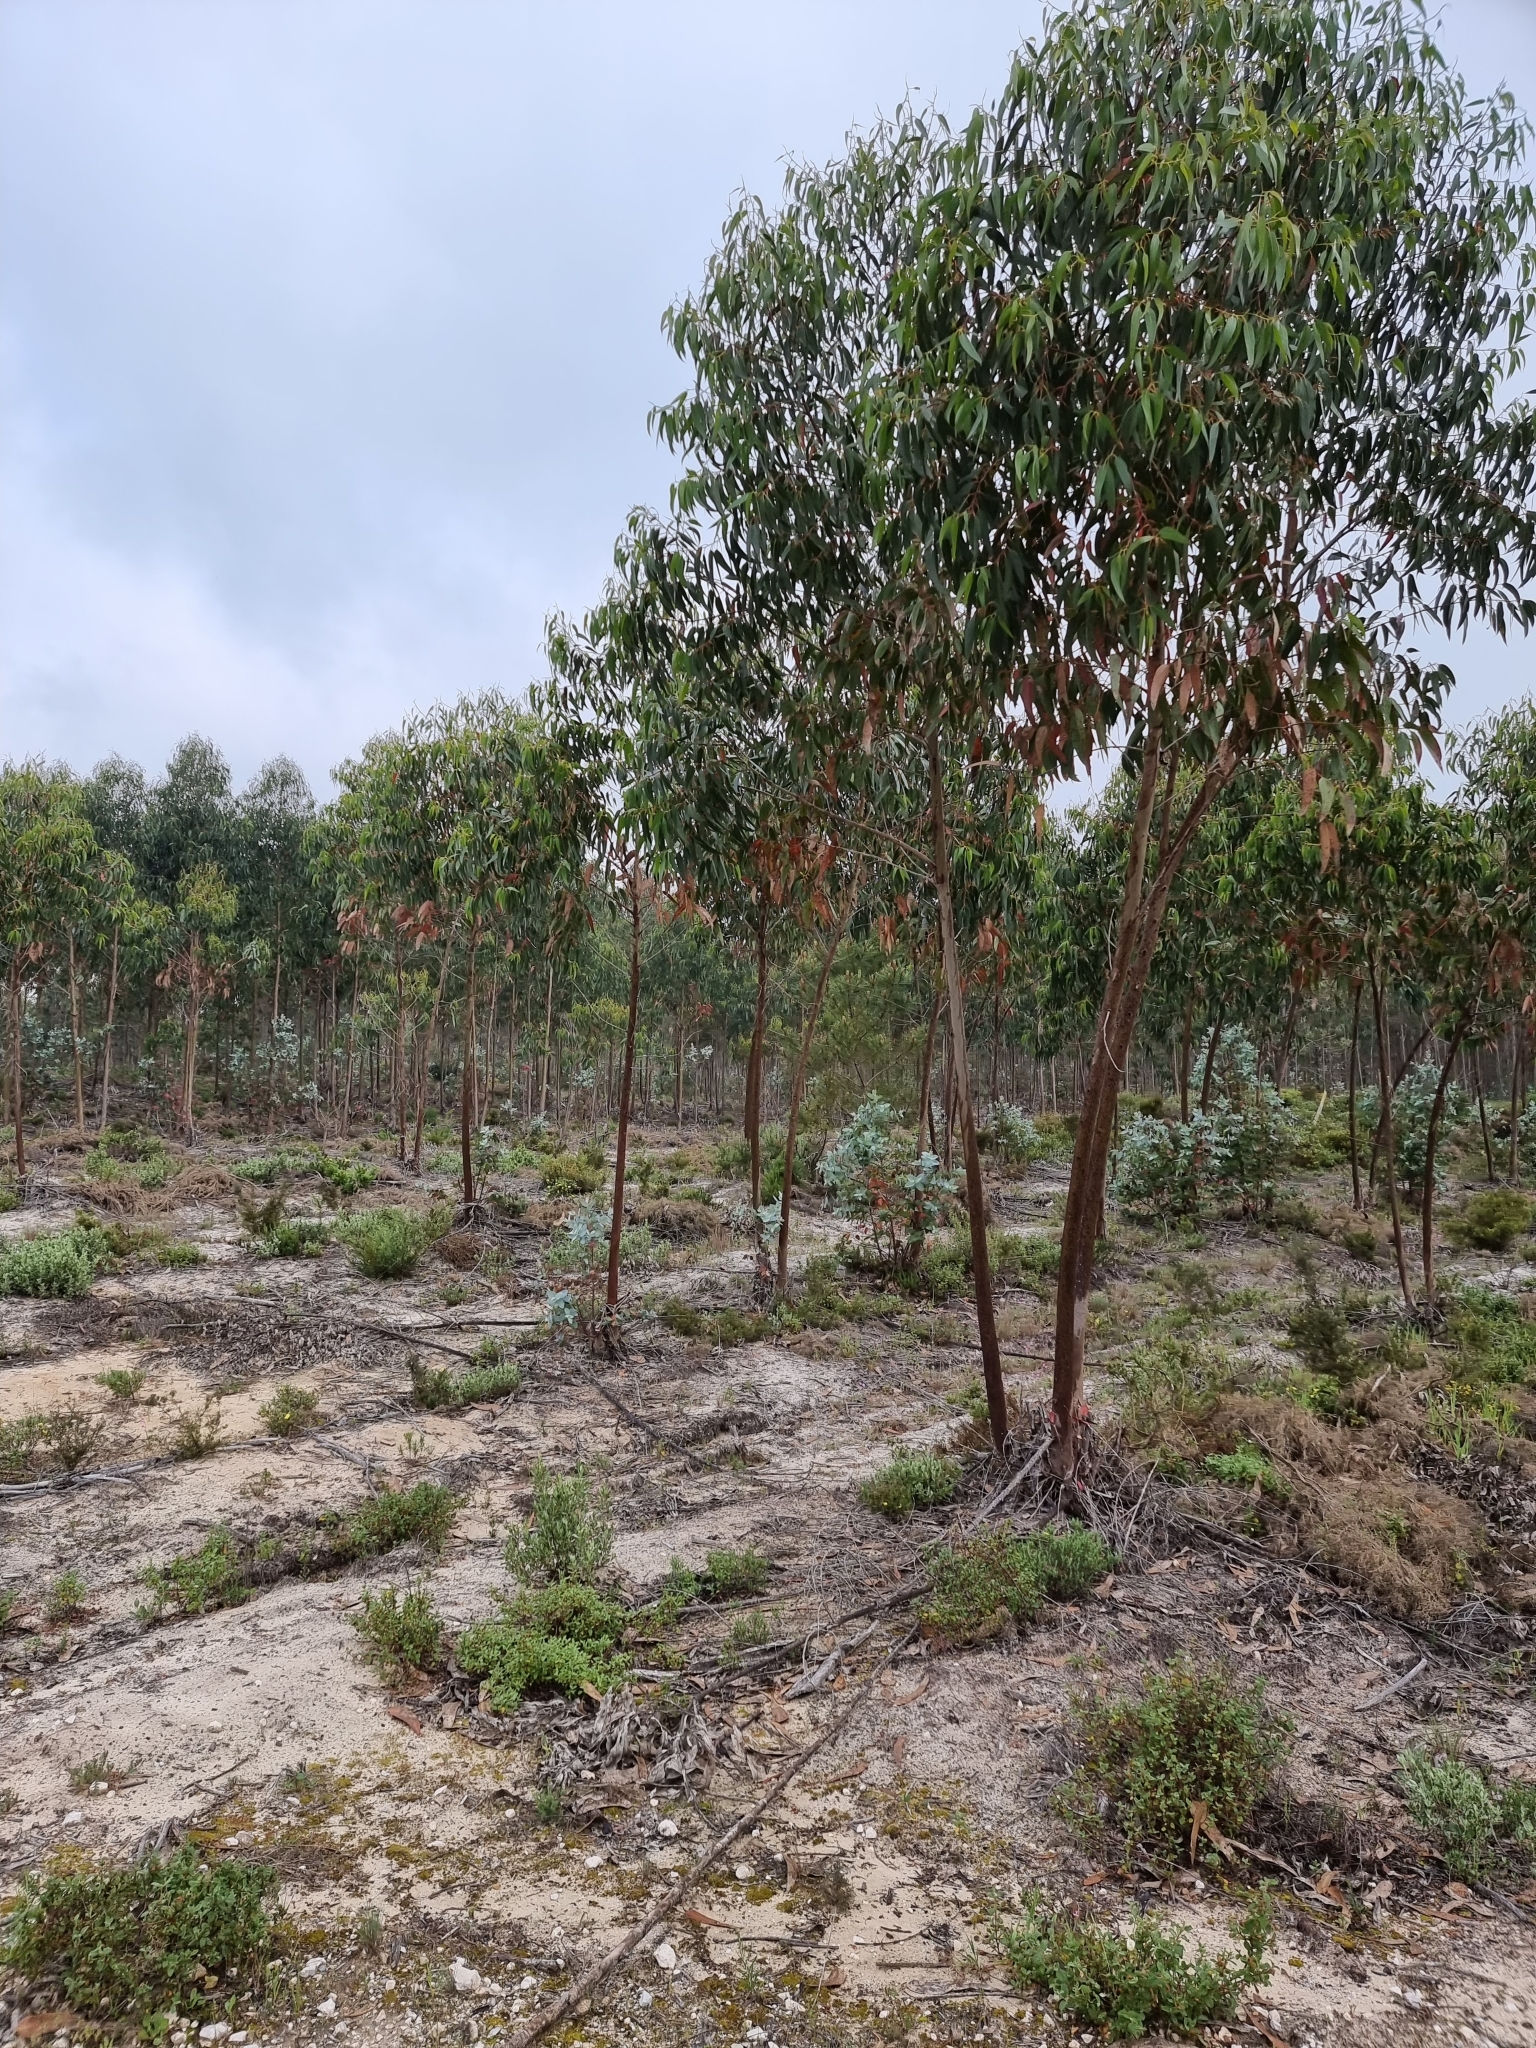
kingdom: Plantae
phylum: Tracheophyta
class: Magnoliopsida
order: Myrtales
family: Myrtaceae
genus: Eucalyptus
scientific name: Eucalyptus globulus
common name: Southern blue-gum
